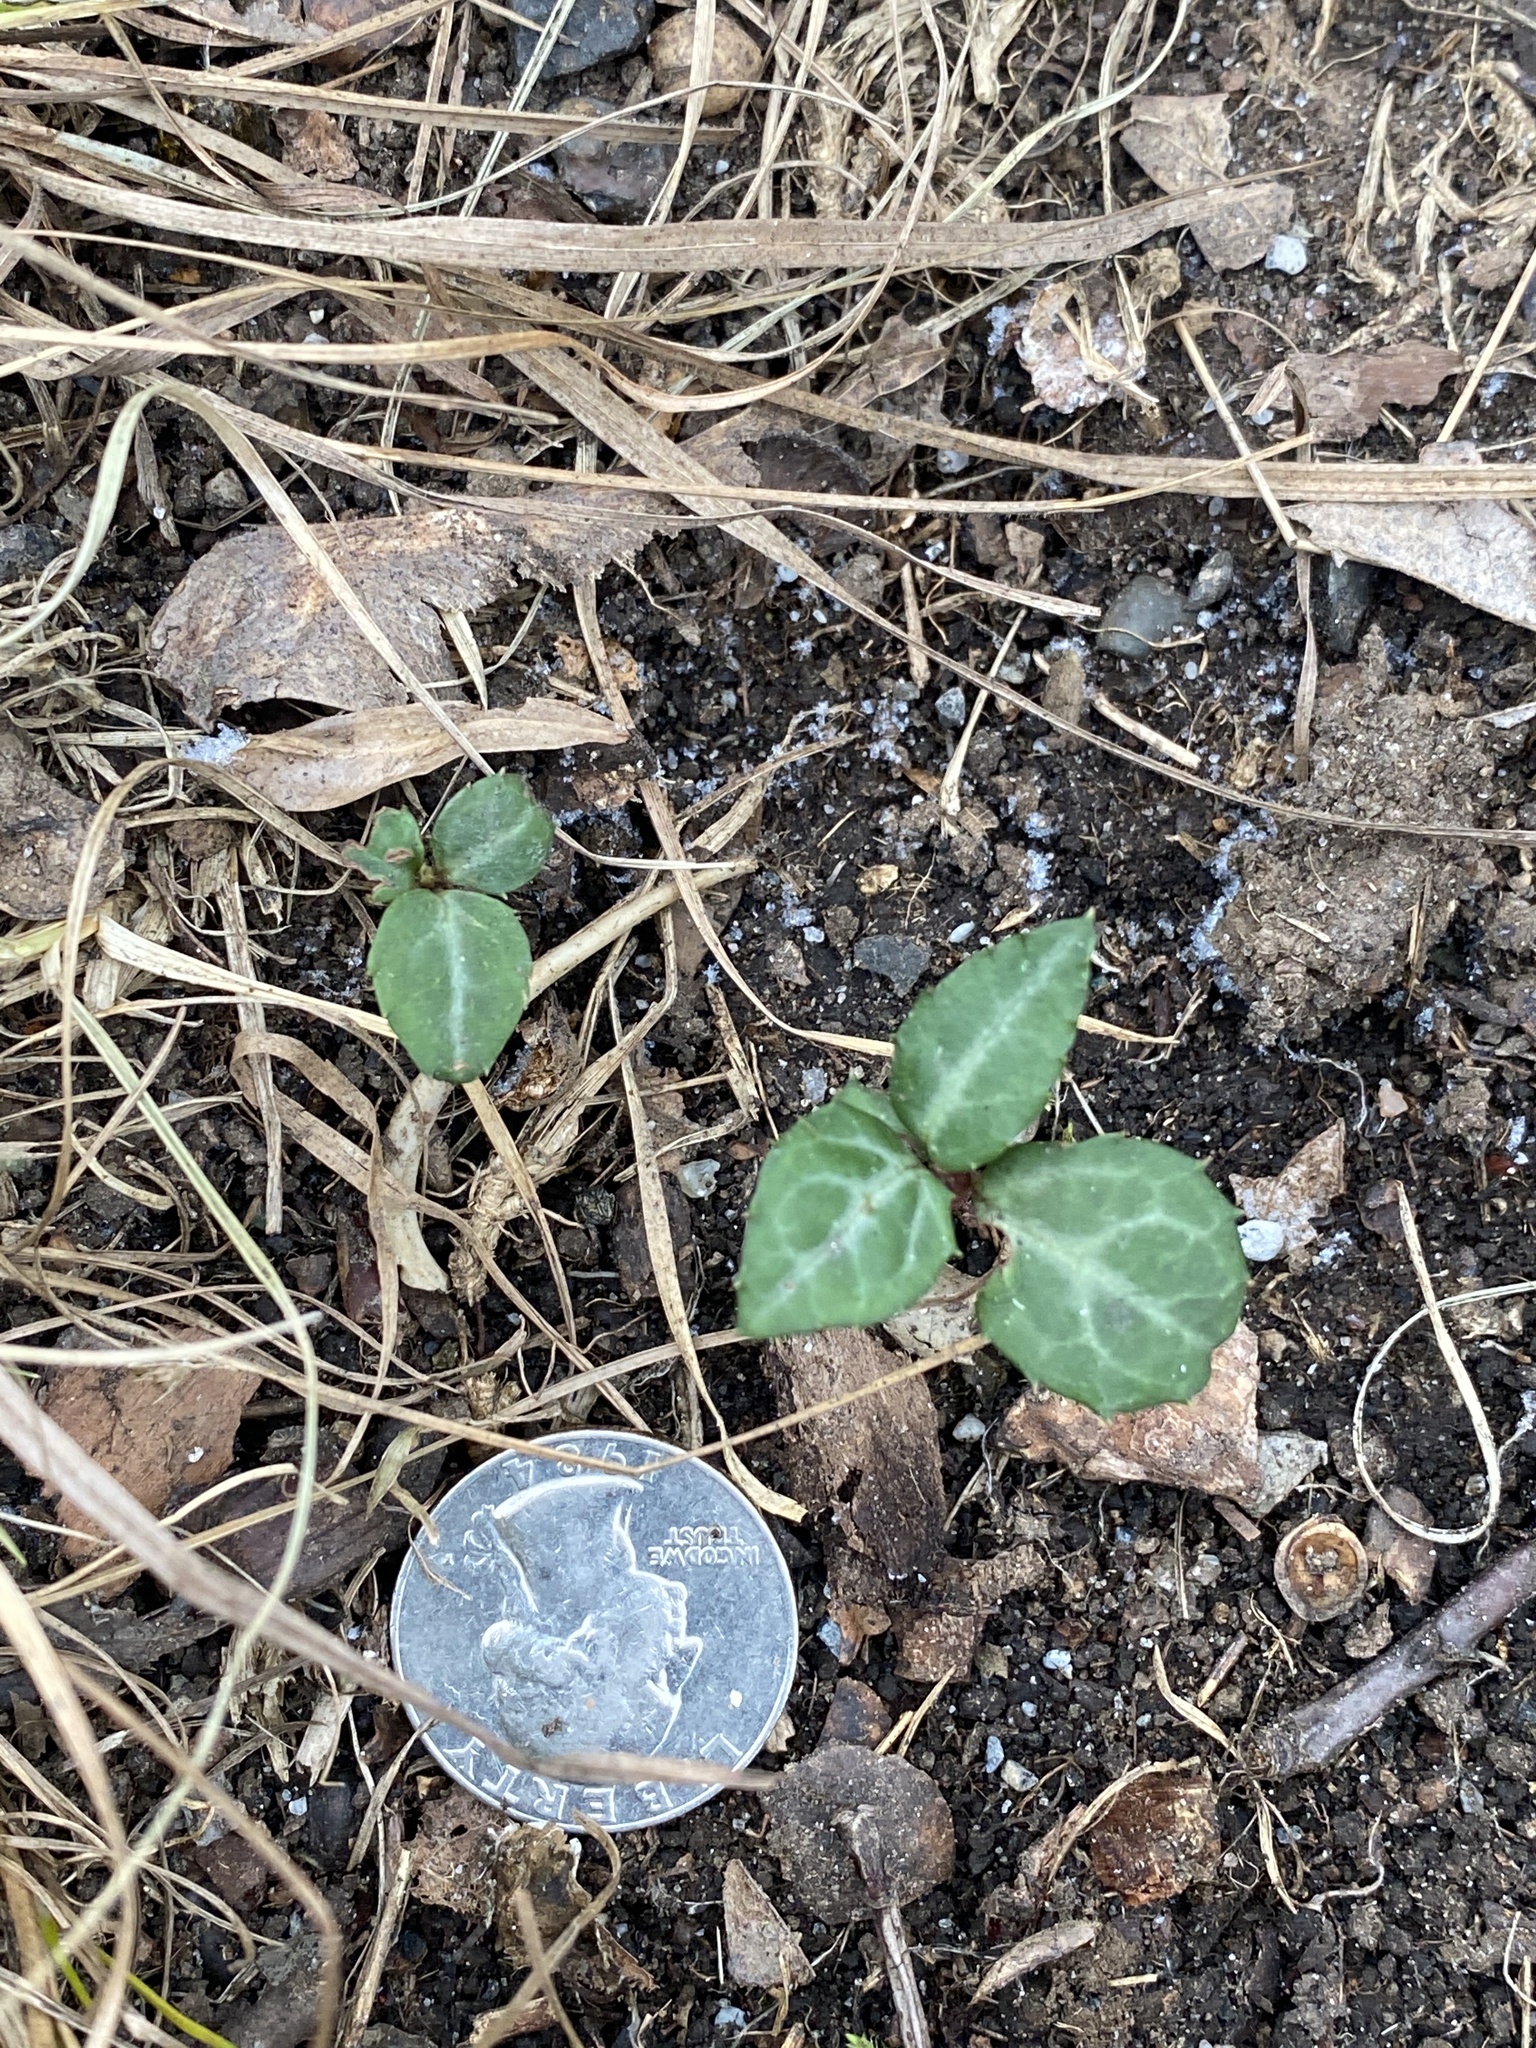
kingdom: Plantae
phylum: Tracheophyta
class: Magnoliopsida
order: Ericales
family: Ericaceae
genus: Chimaphila
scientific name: Chimaphila maculata
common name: Spotted pipsissewa
